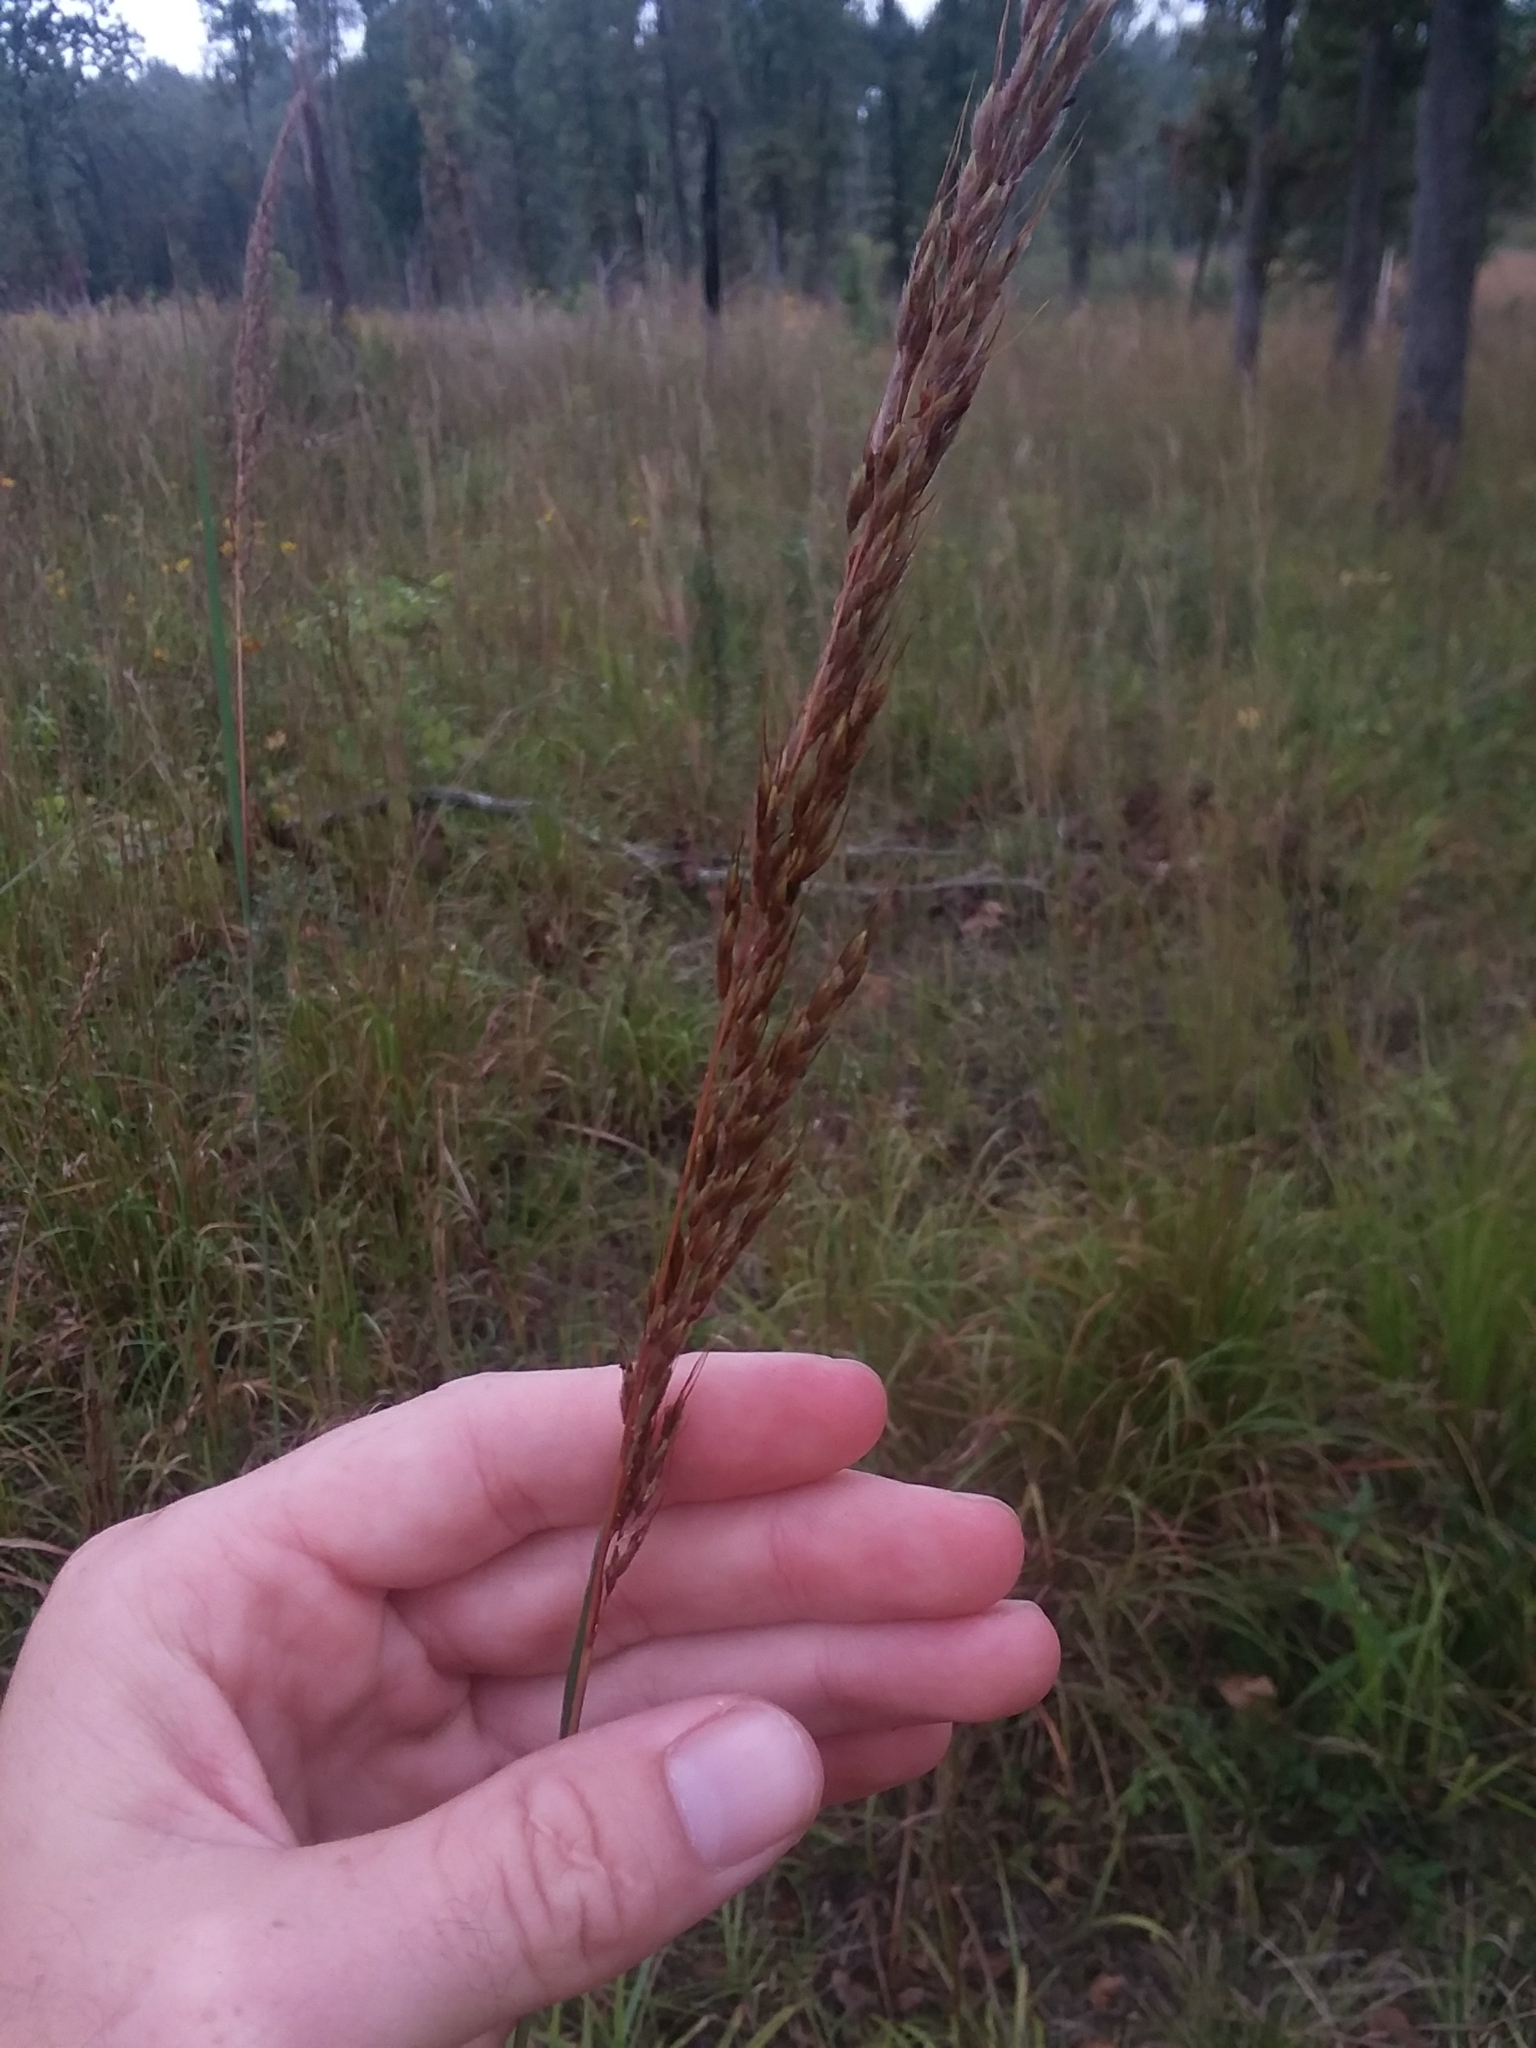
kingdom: Plantae
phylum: Tracheophyta
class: Liliopsida
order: Poales
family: Poaceae
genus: Sorghastrum
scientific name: Sorghastrum nutans
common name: Indian grass
